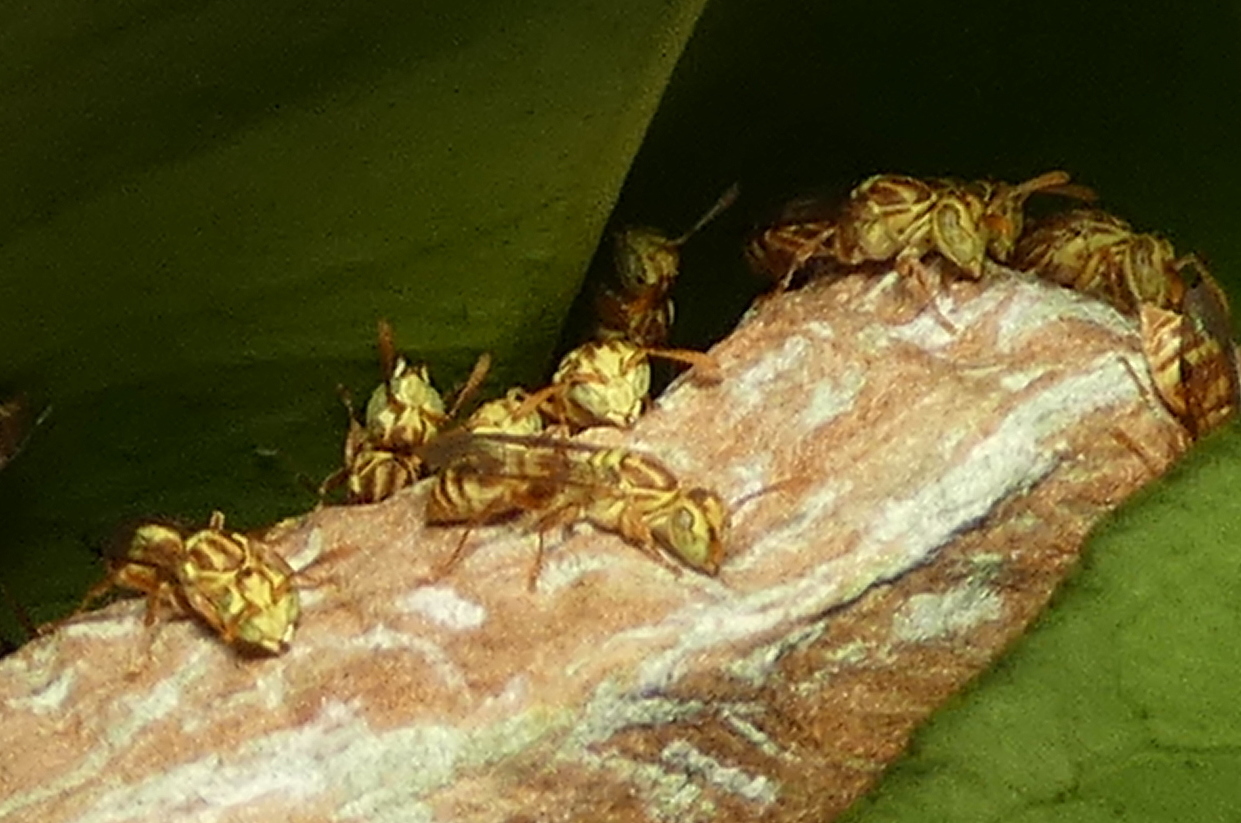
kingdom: Animalia
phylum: Arthropoda
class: Insecta
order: Hymenoptera
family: Vespidae
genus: Protopolybia
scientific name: Protopolybia potiguara
